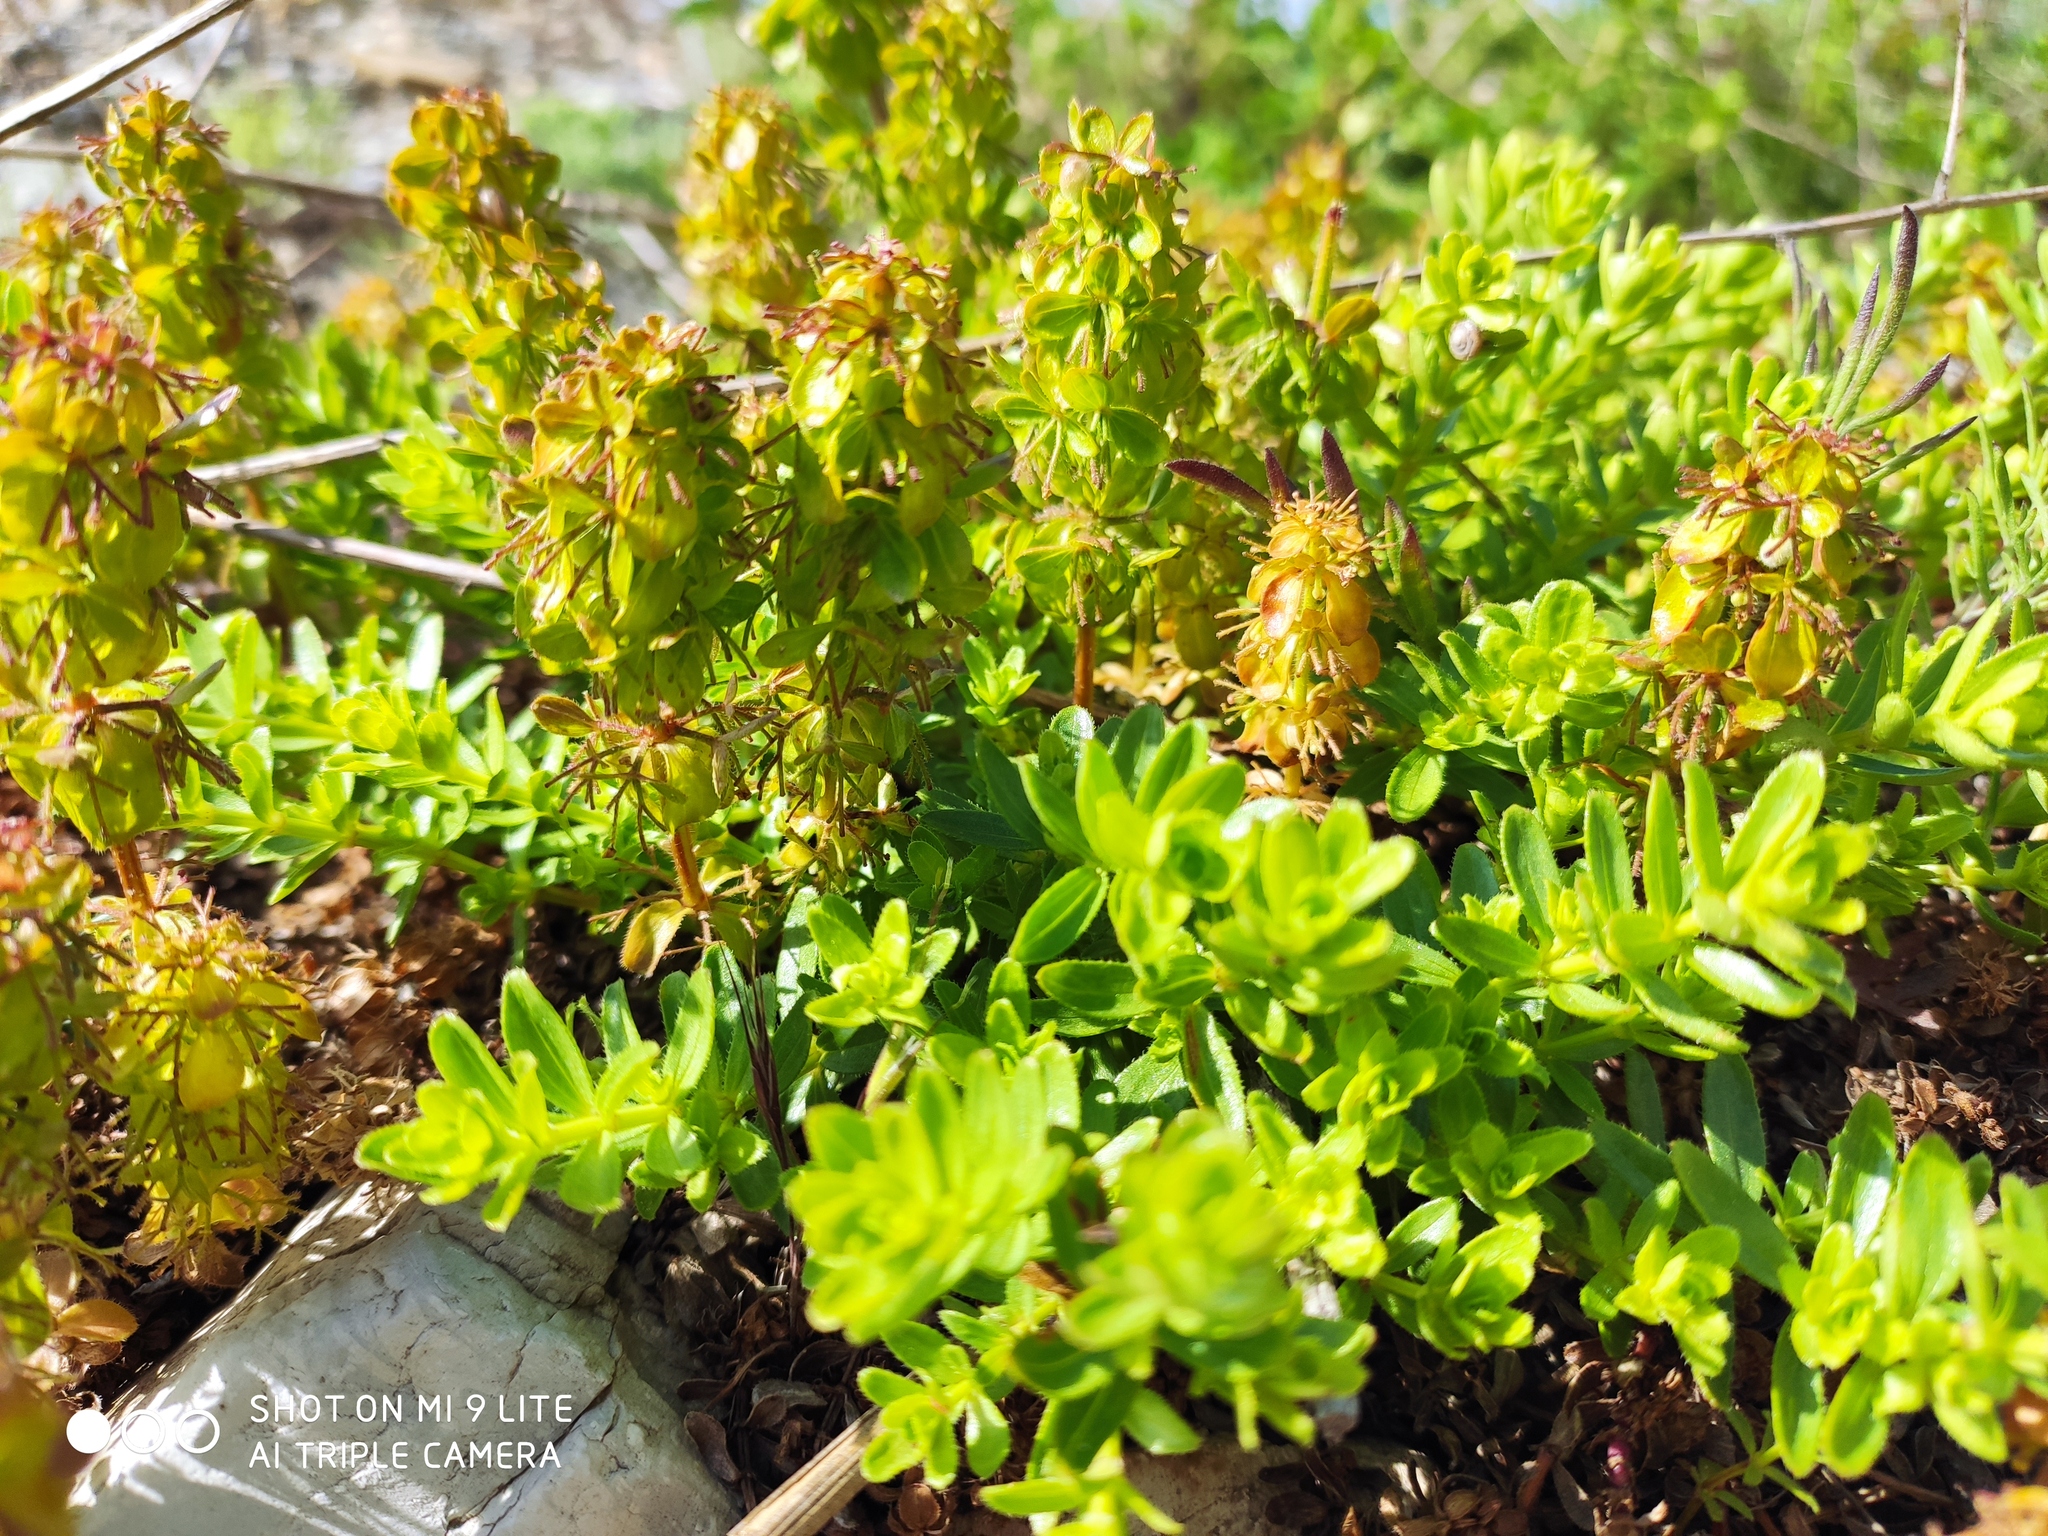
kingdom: Plantae
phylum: Tracheophyta
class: Magnoliopsida
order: Gentianales
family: Rubiaceae
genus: Cruciata
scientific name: Cruciata taurica
